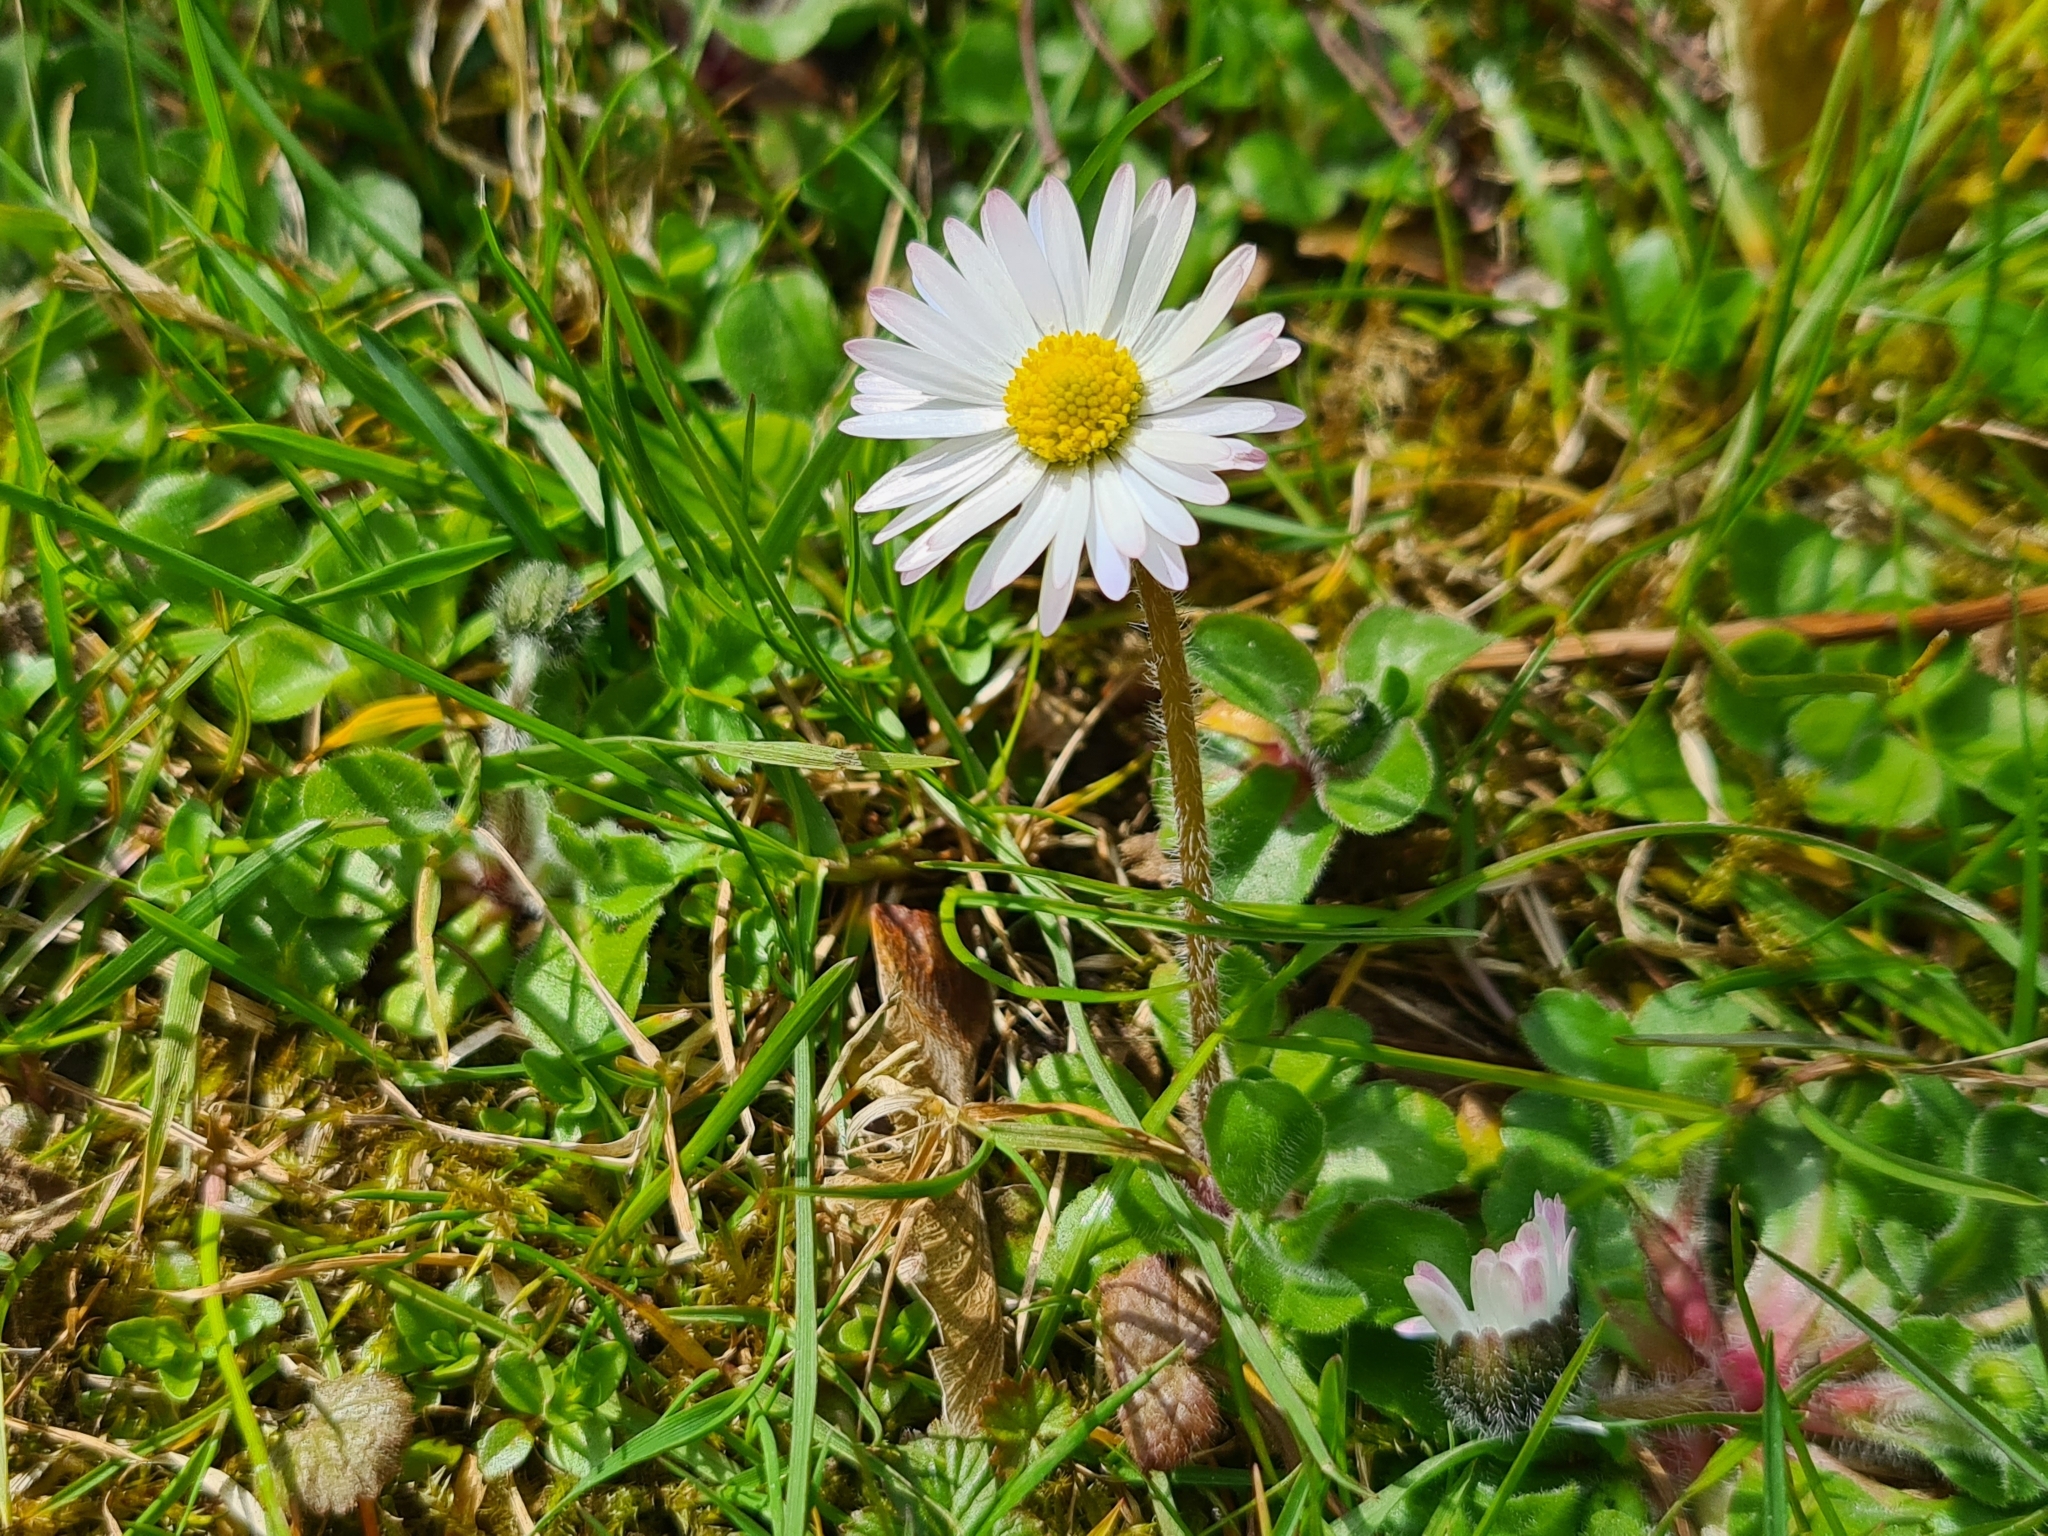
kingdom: Plantae
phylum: Tracheophyta
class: Magnoliopsida
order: Asterales
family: Asteraceae
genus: Bellis
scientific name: Bellis perennis
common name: Lawndaisy
